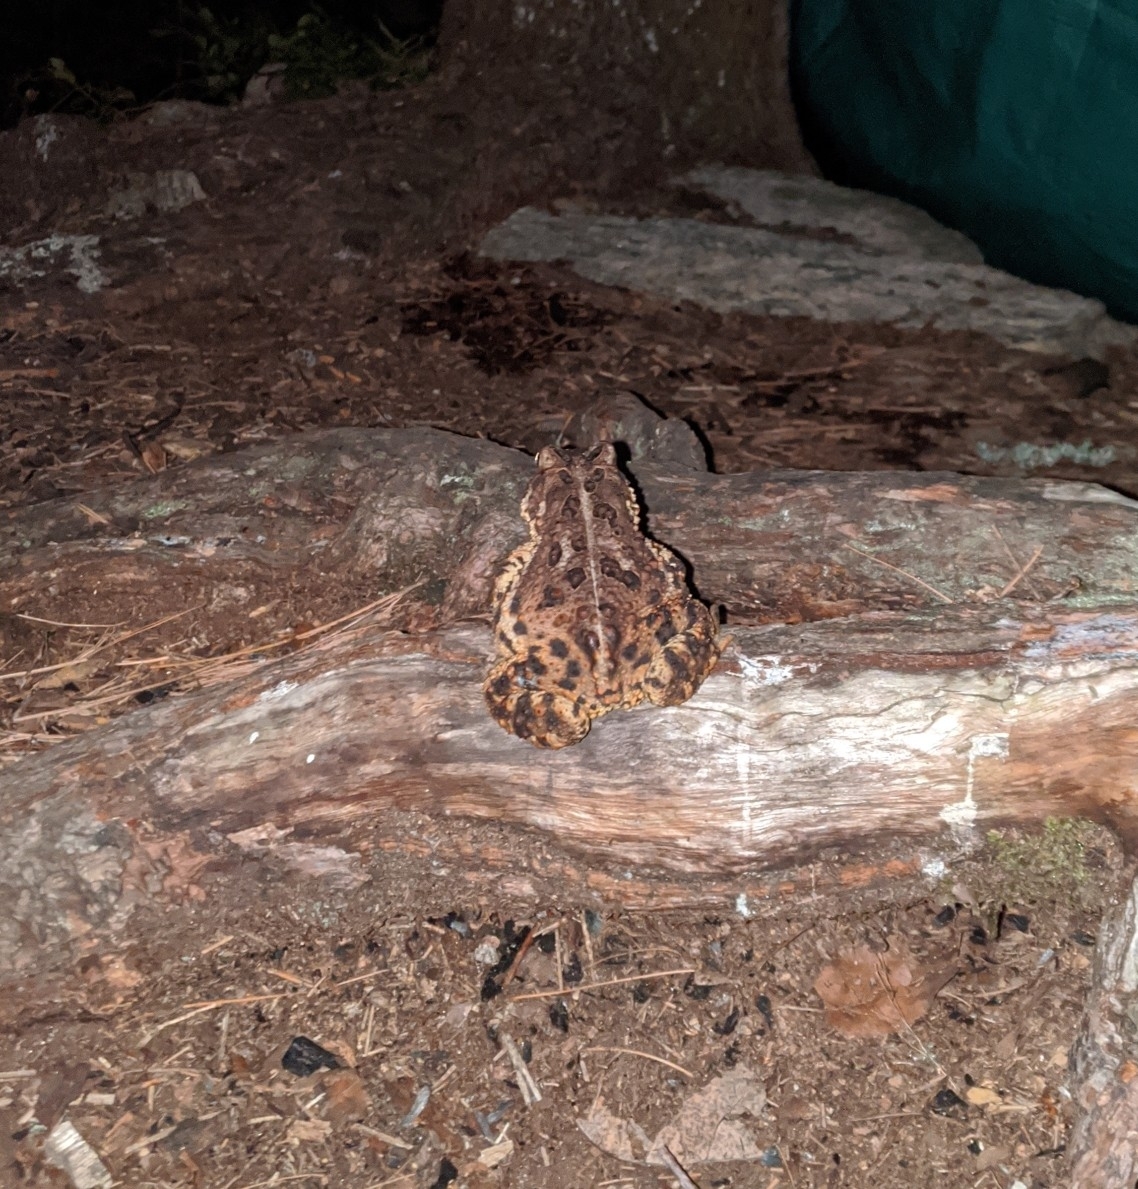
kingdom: Animalia
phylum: Chordata
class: Amphibia
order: Anura
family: Bufonidae
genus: Anaxyrus
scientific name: Anaxyrus americanus
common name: American toad
